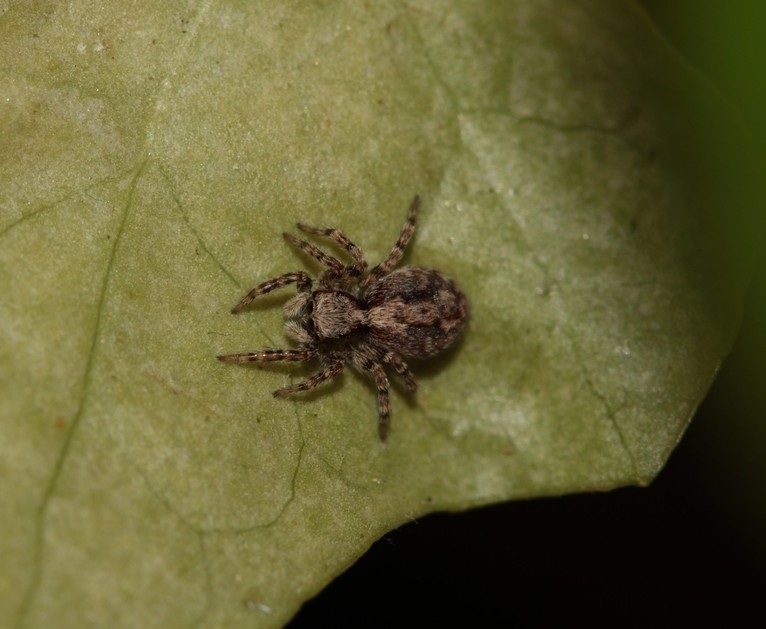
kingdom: Animalia
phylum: Arthropoda
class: Arachnida
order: Araneae
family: Salticidae
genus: Pseudeuophrys
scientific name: Pseudeuophrys lanigera
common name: Jumping spider
